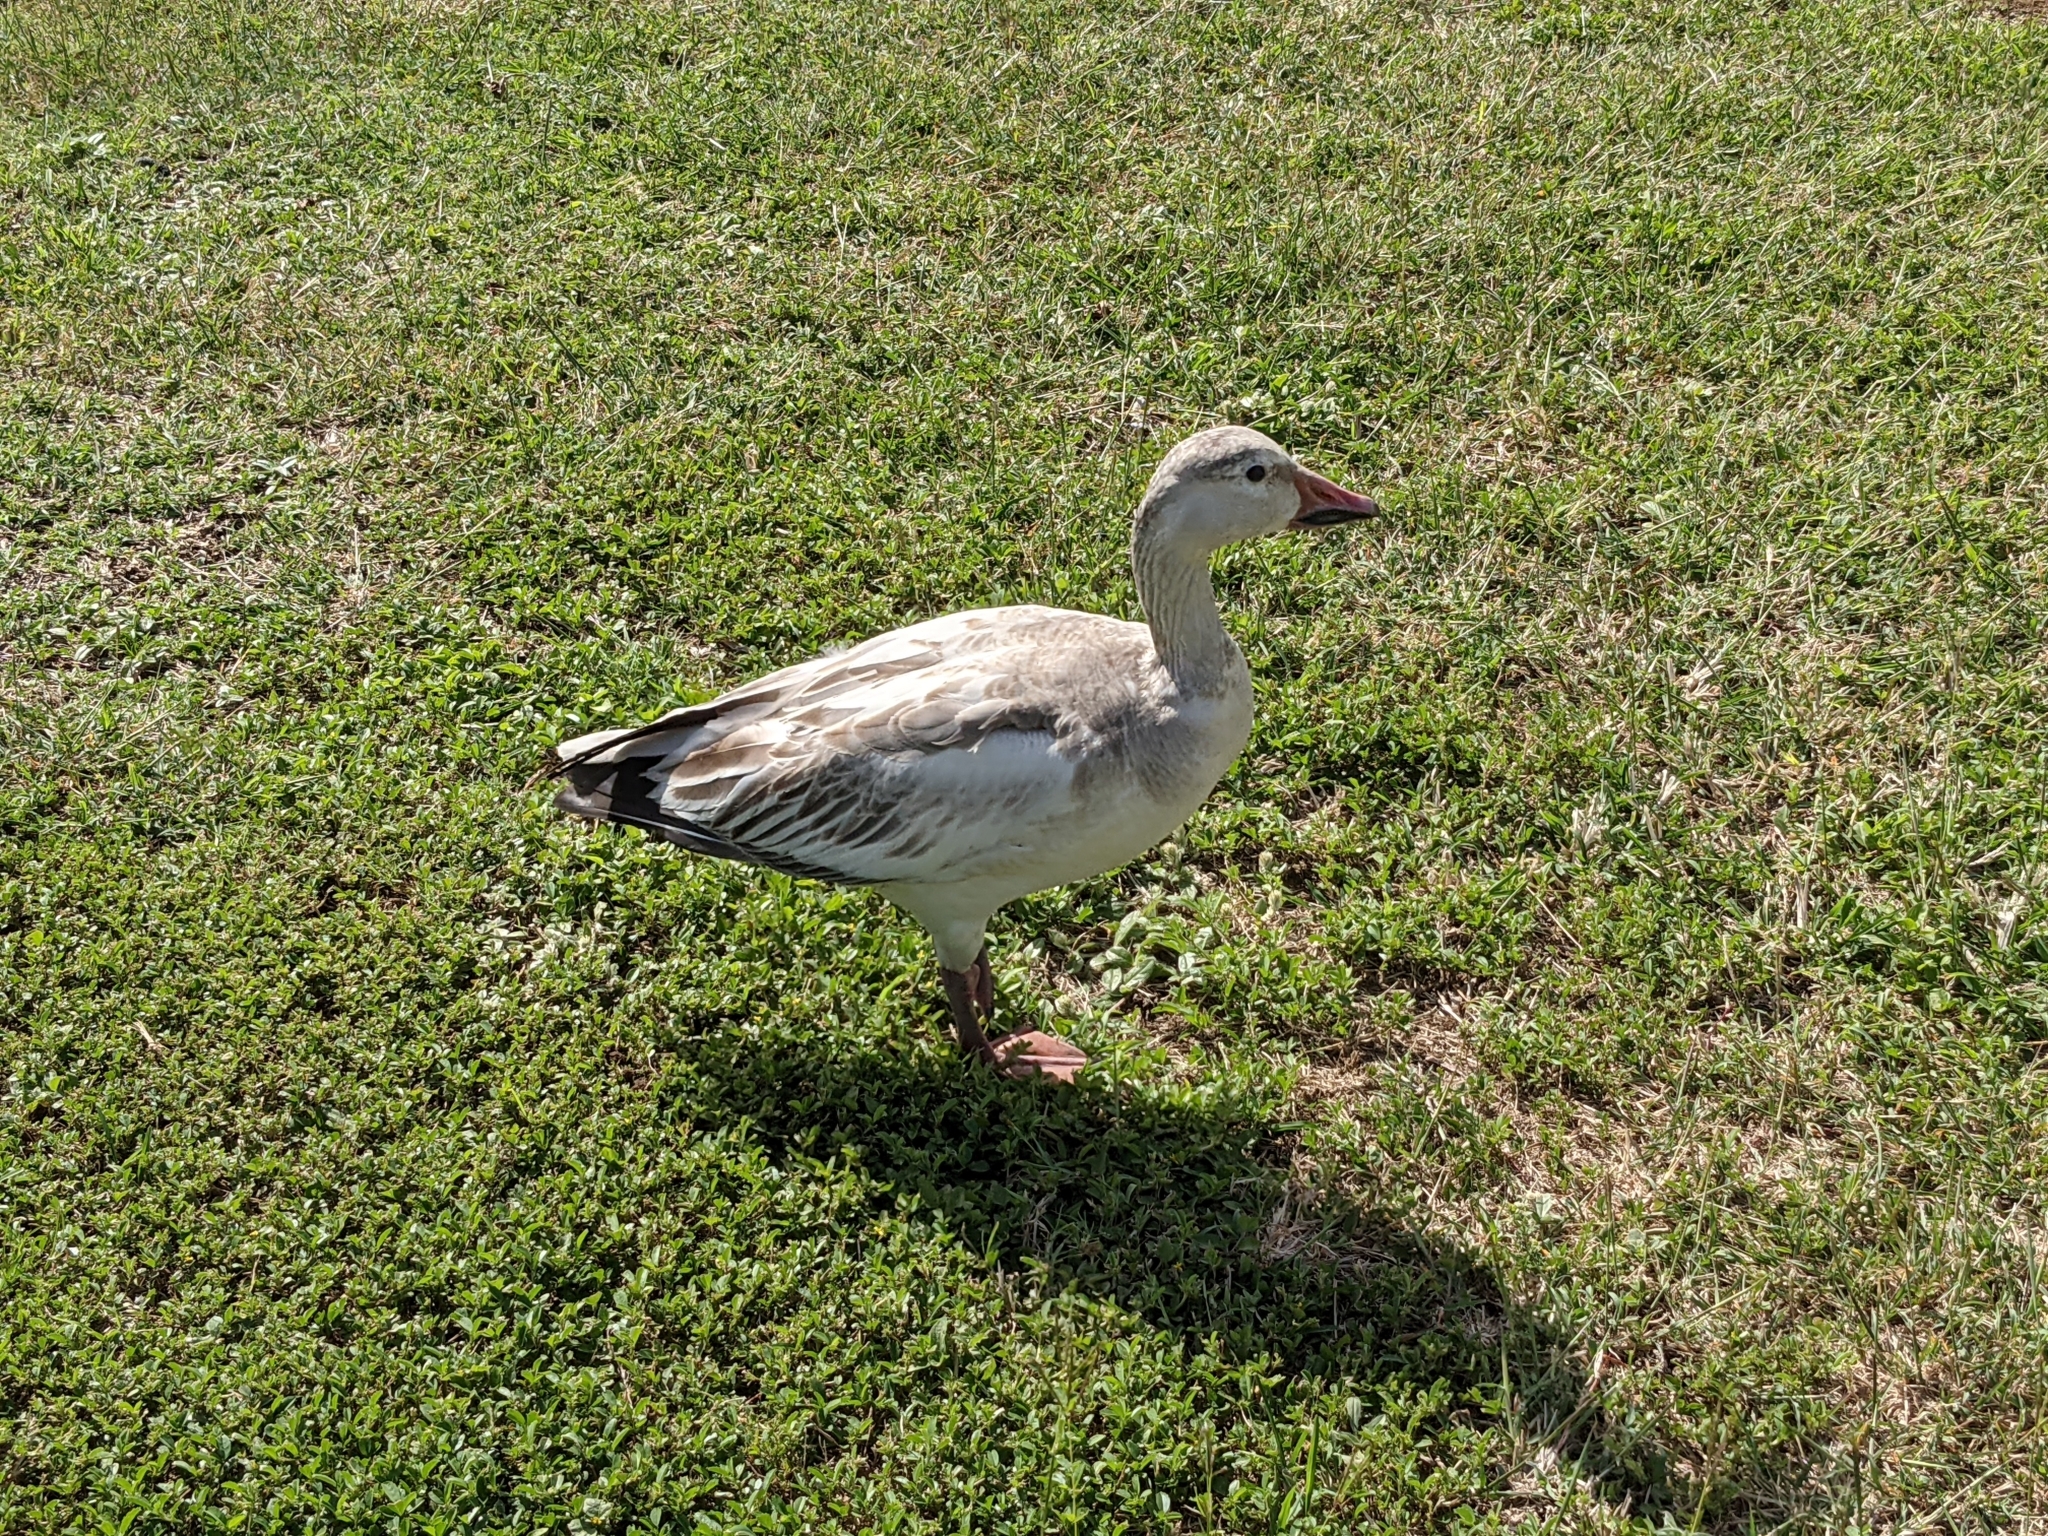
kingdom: Animalia
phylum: Chordata
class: Aves
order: Anseriformes
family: Anatidae
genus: Anser
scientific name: Anser caerulescens
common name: Snow goose
